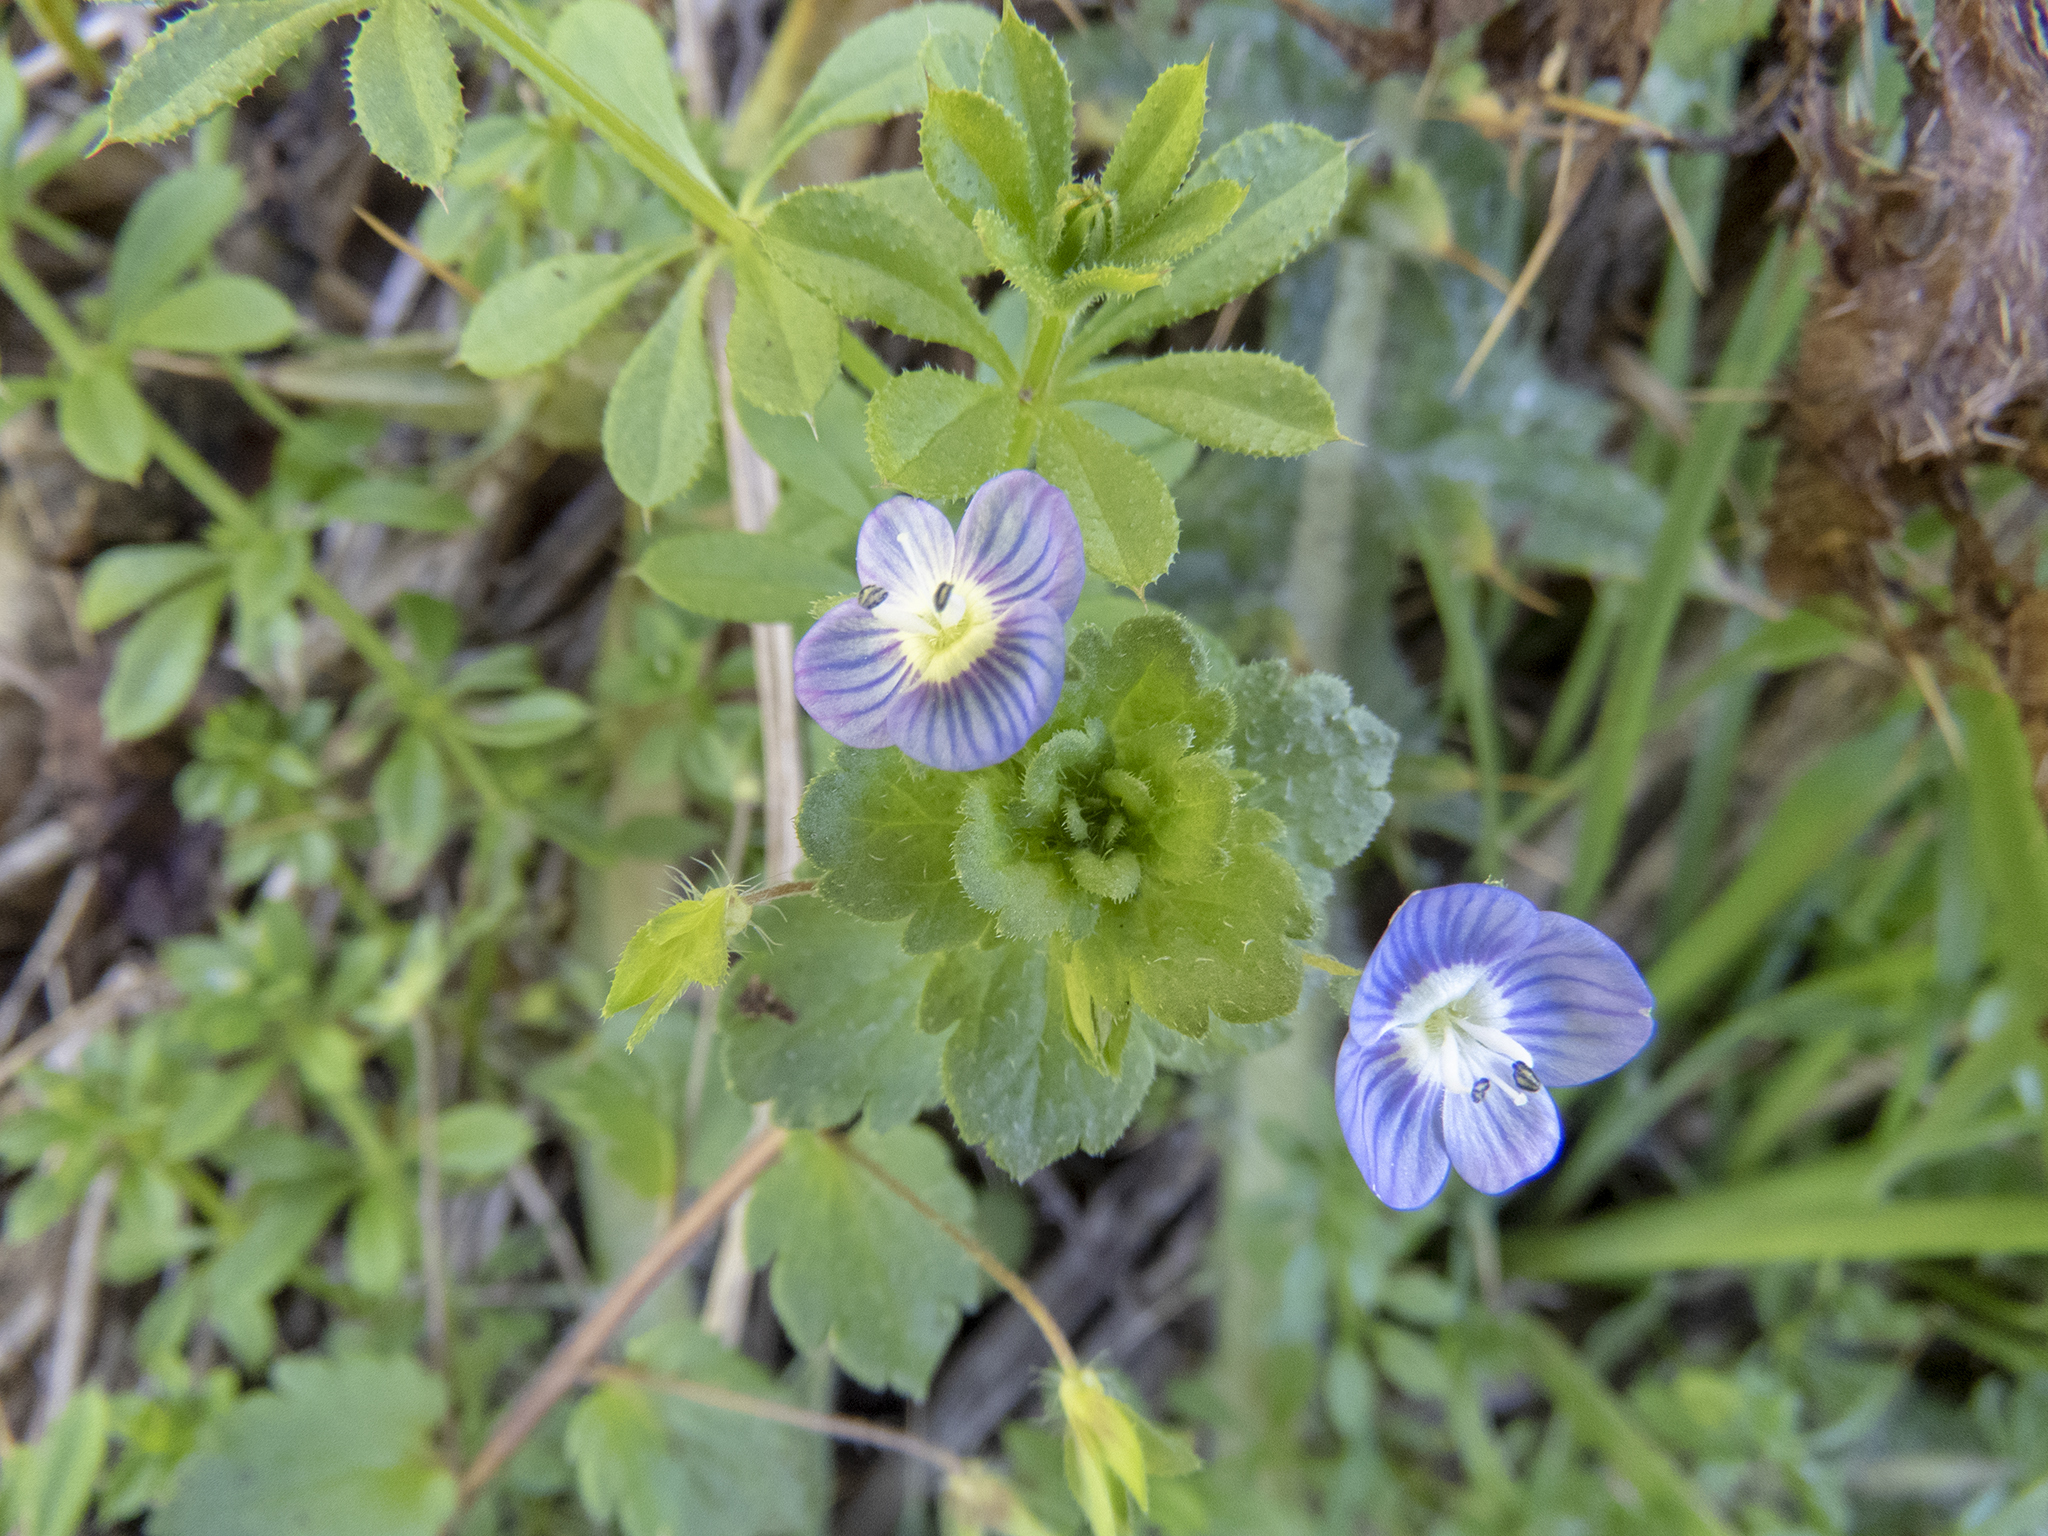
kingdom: Plantae
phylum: Tracheophyta
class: Magnoliopsida
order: Lamiales
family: Plantaginaceae
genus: Veronica
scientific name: Veronica persica
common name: Common field-speedwell
